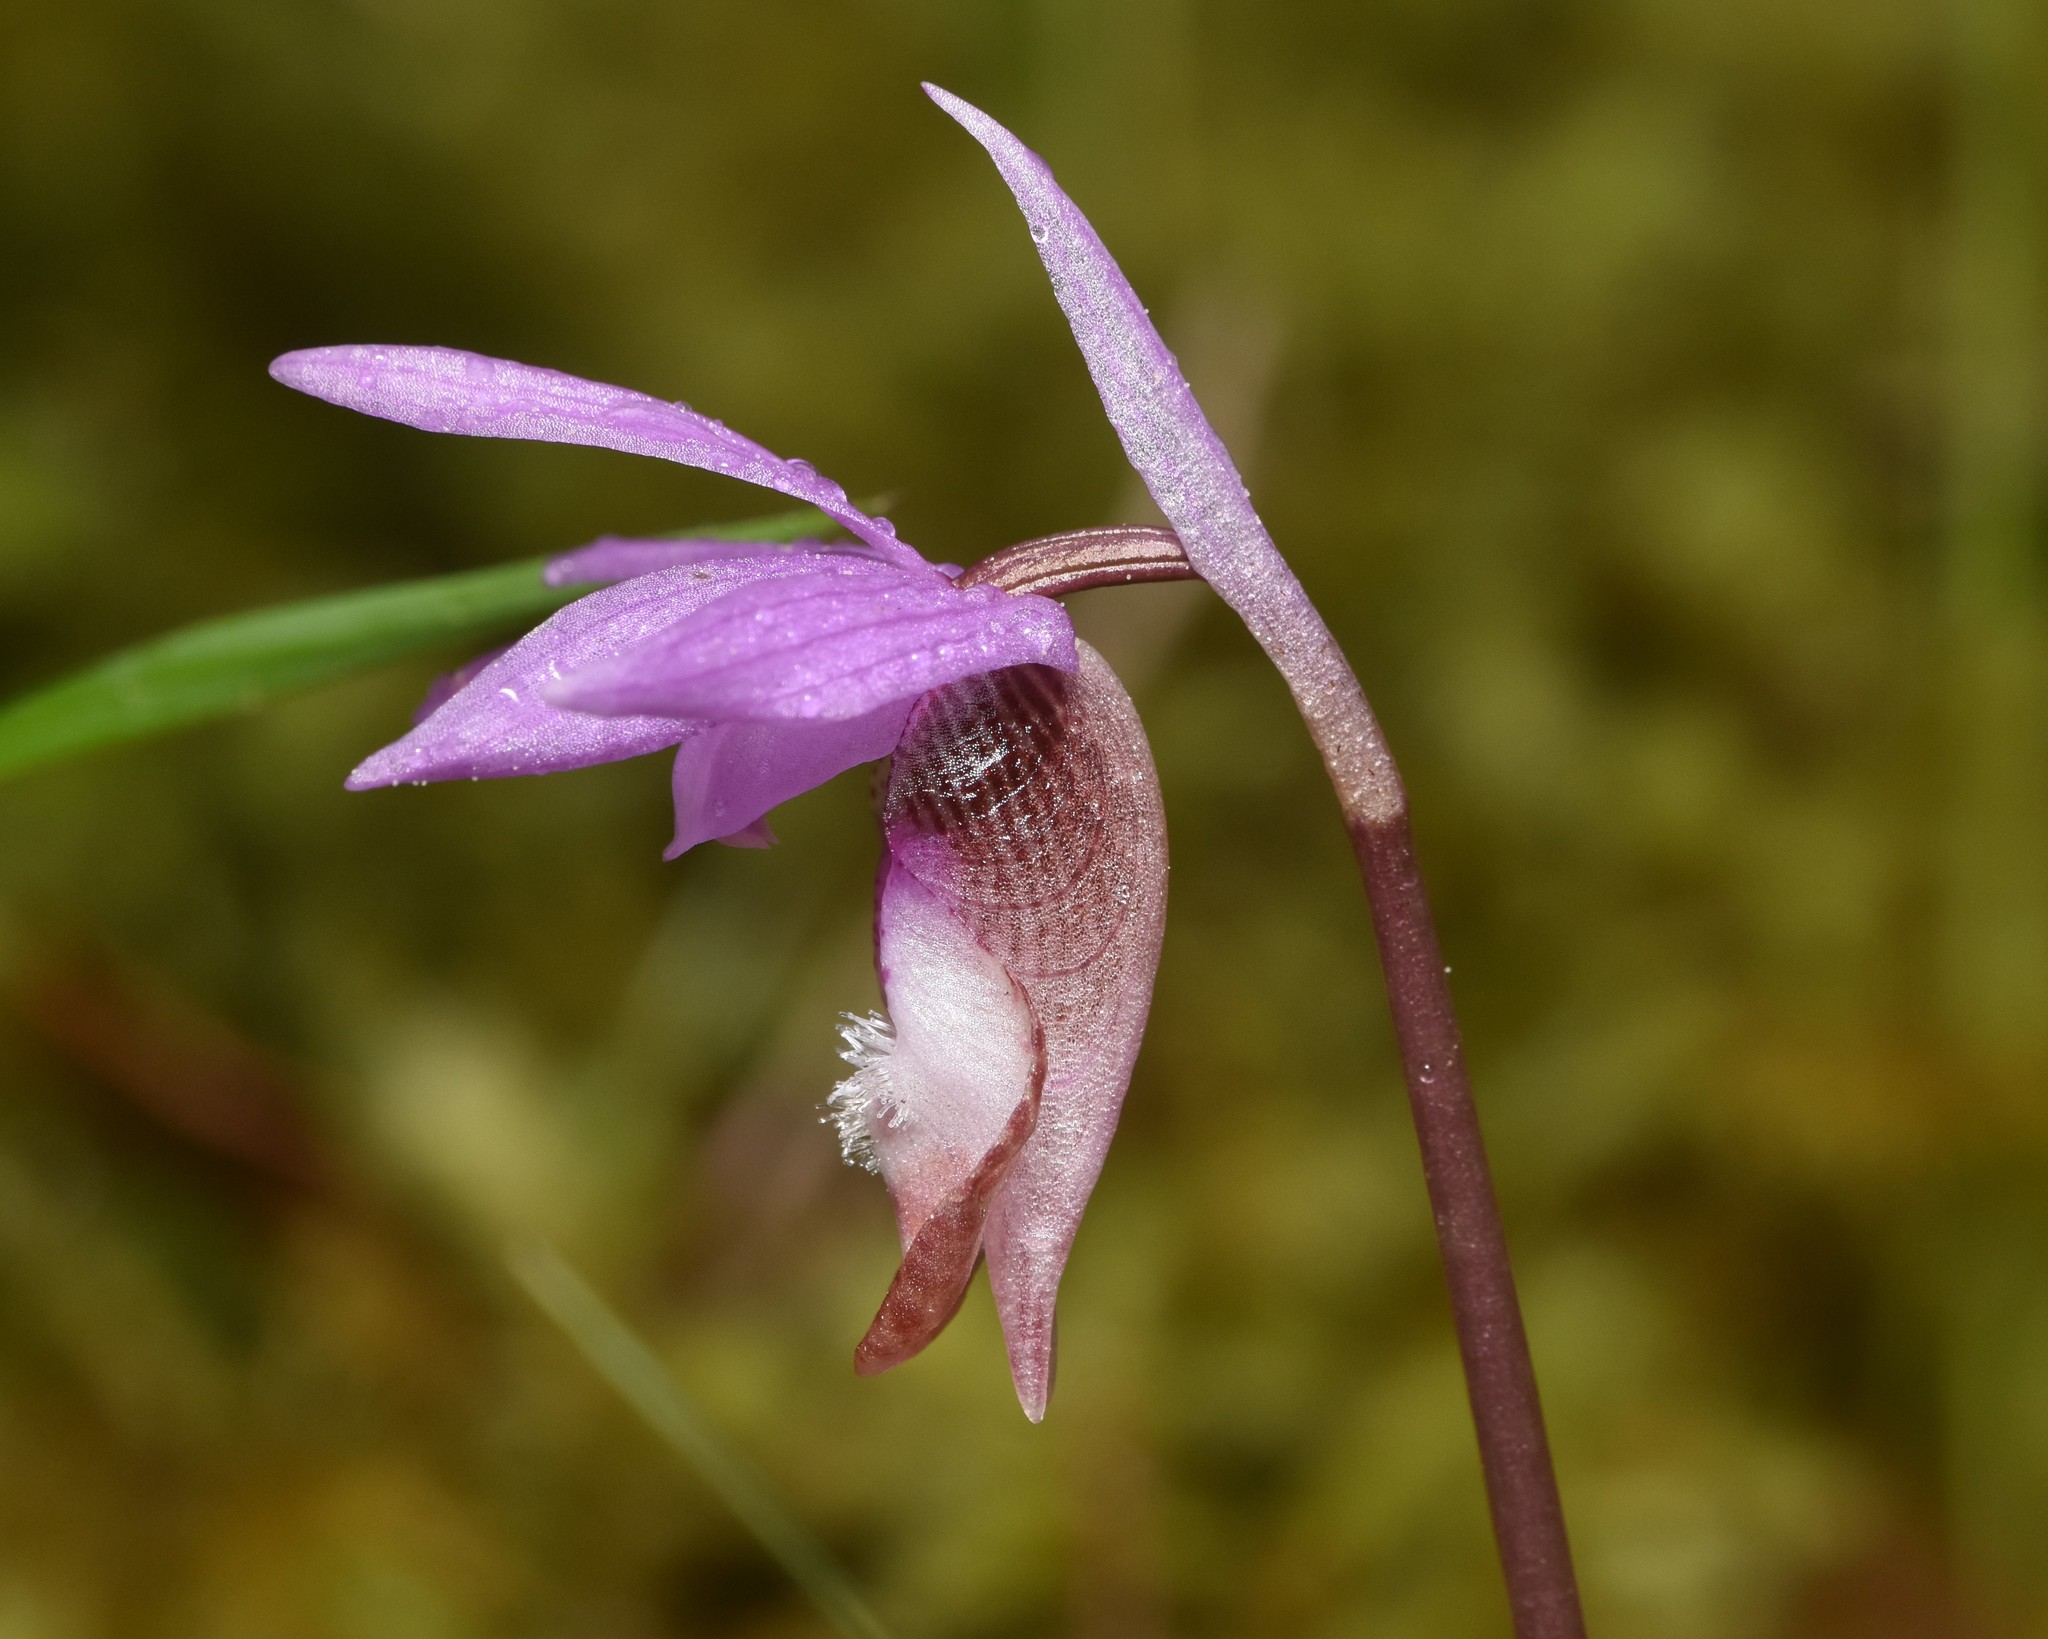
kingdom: Plantae
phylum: Tracheophyta
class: Liliopsida
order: Asparagales
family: Orchidaceae
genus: Calypso
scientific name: Calypso bulbosa
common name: Calypso
